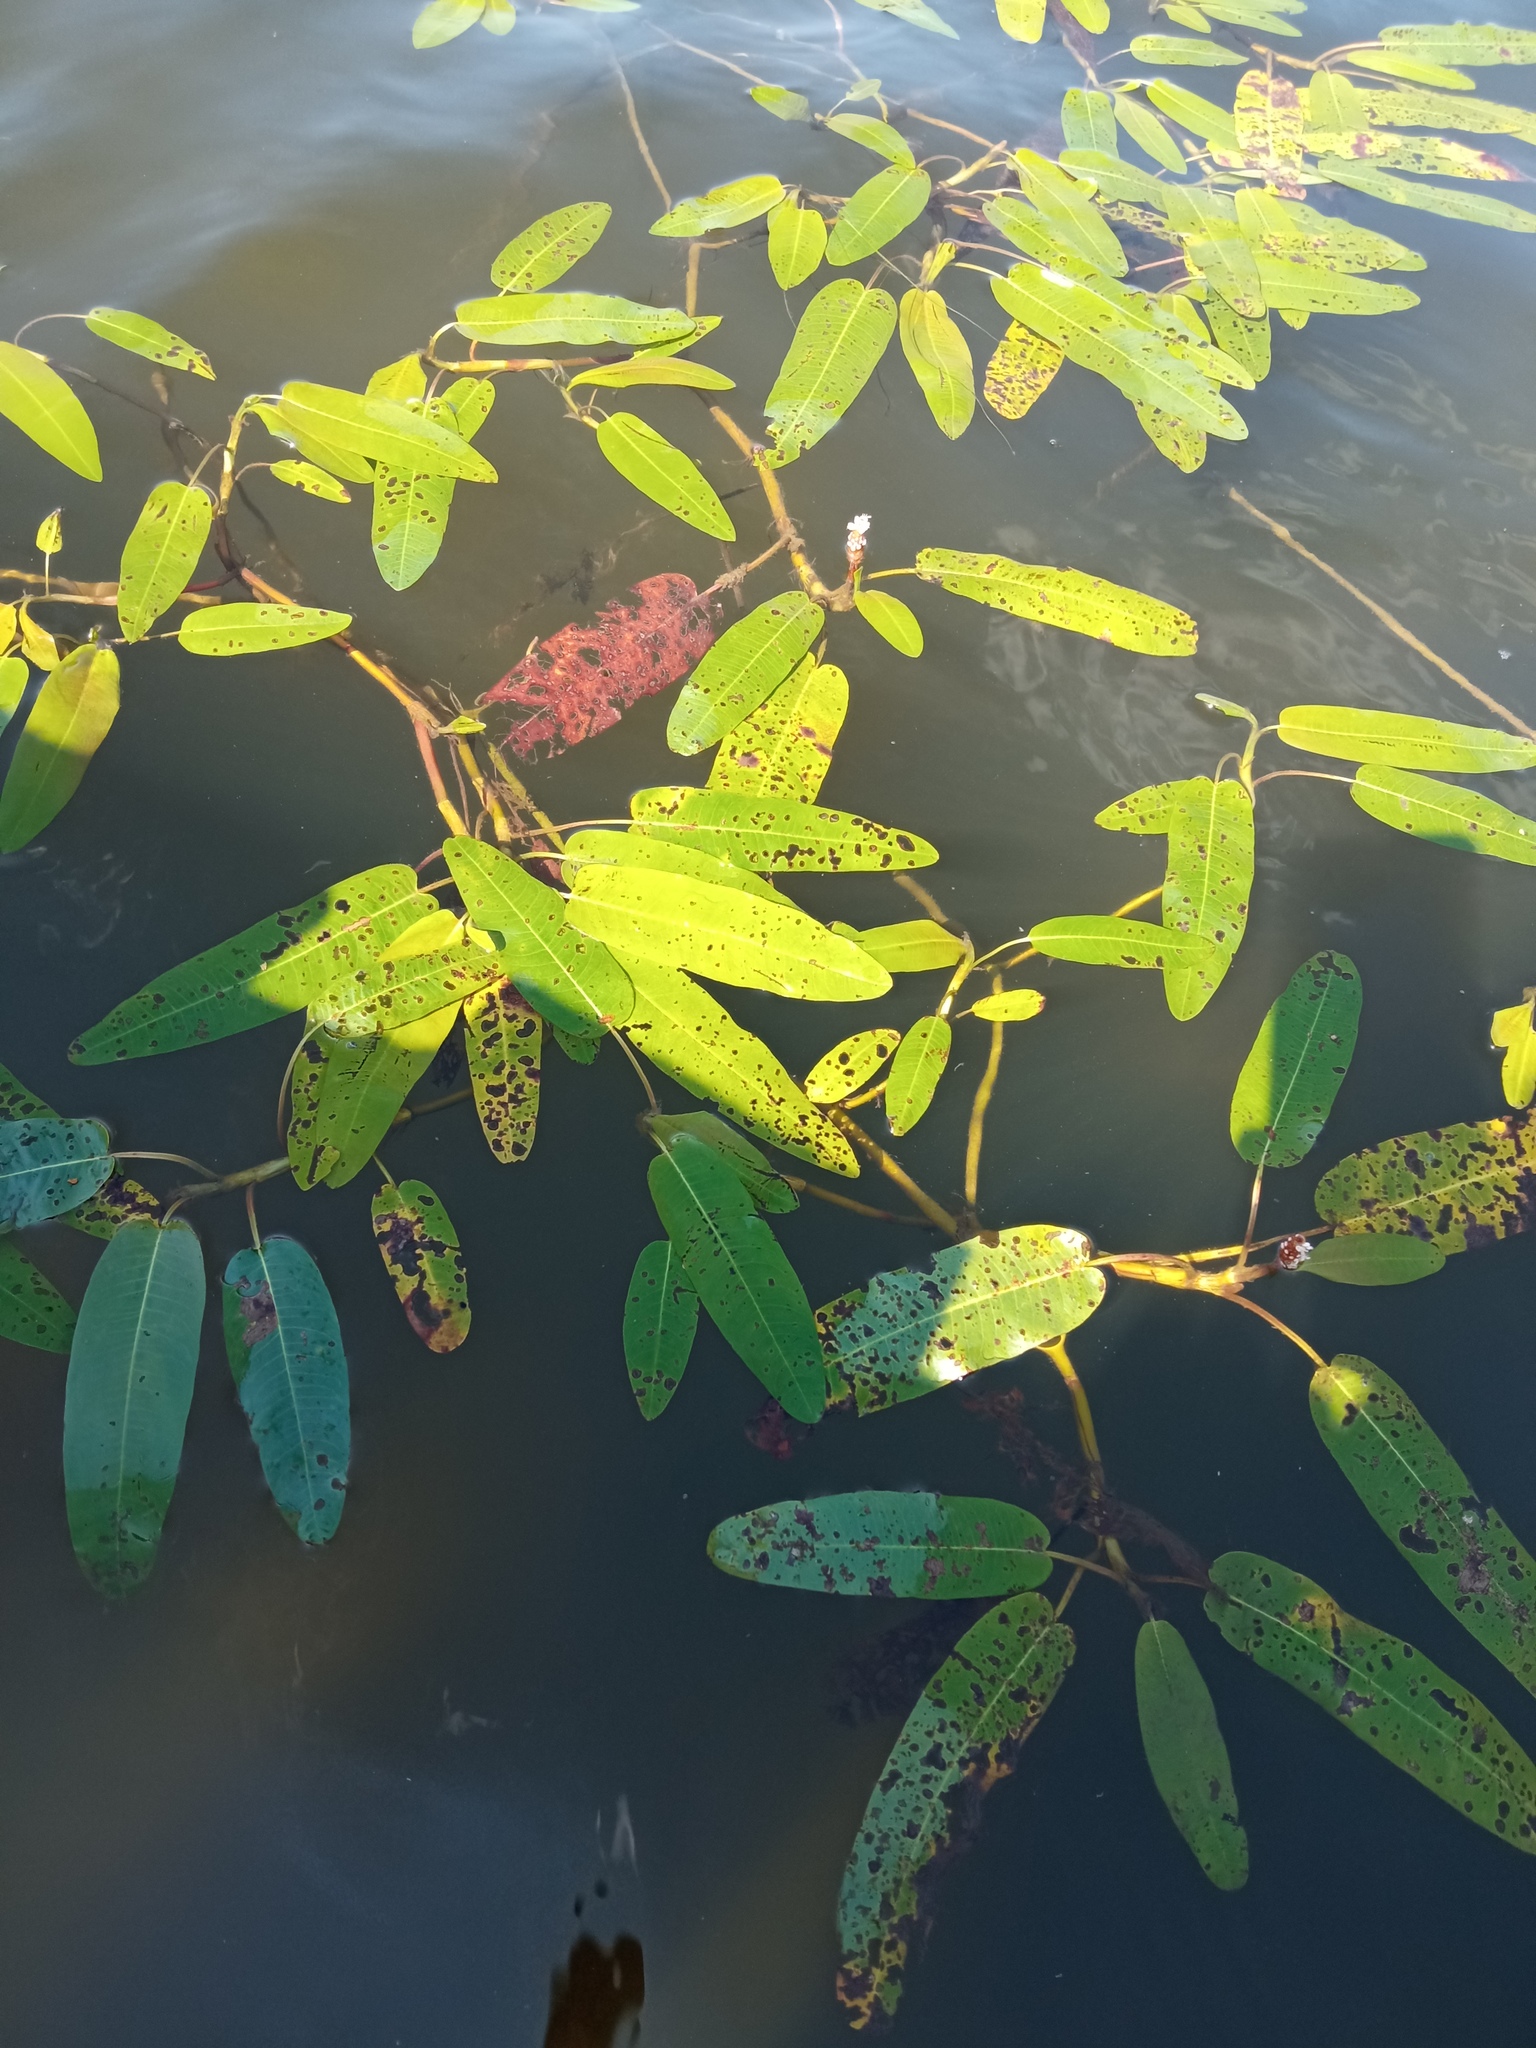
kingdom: Plantae
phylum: Tracheophyta
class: Magnoliopsida
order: Caryophyllales
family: Polygonaceae
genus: Persicaria
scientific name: Persicaria amphibia
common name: Amphibious bistort
